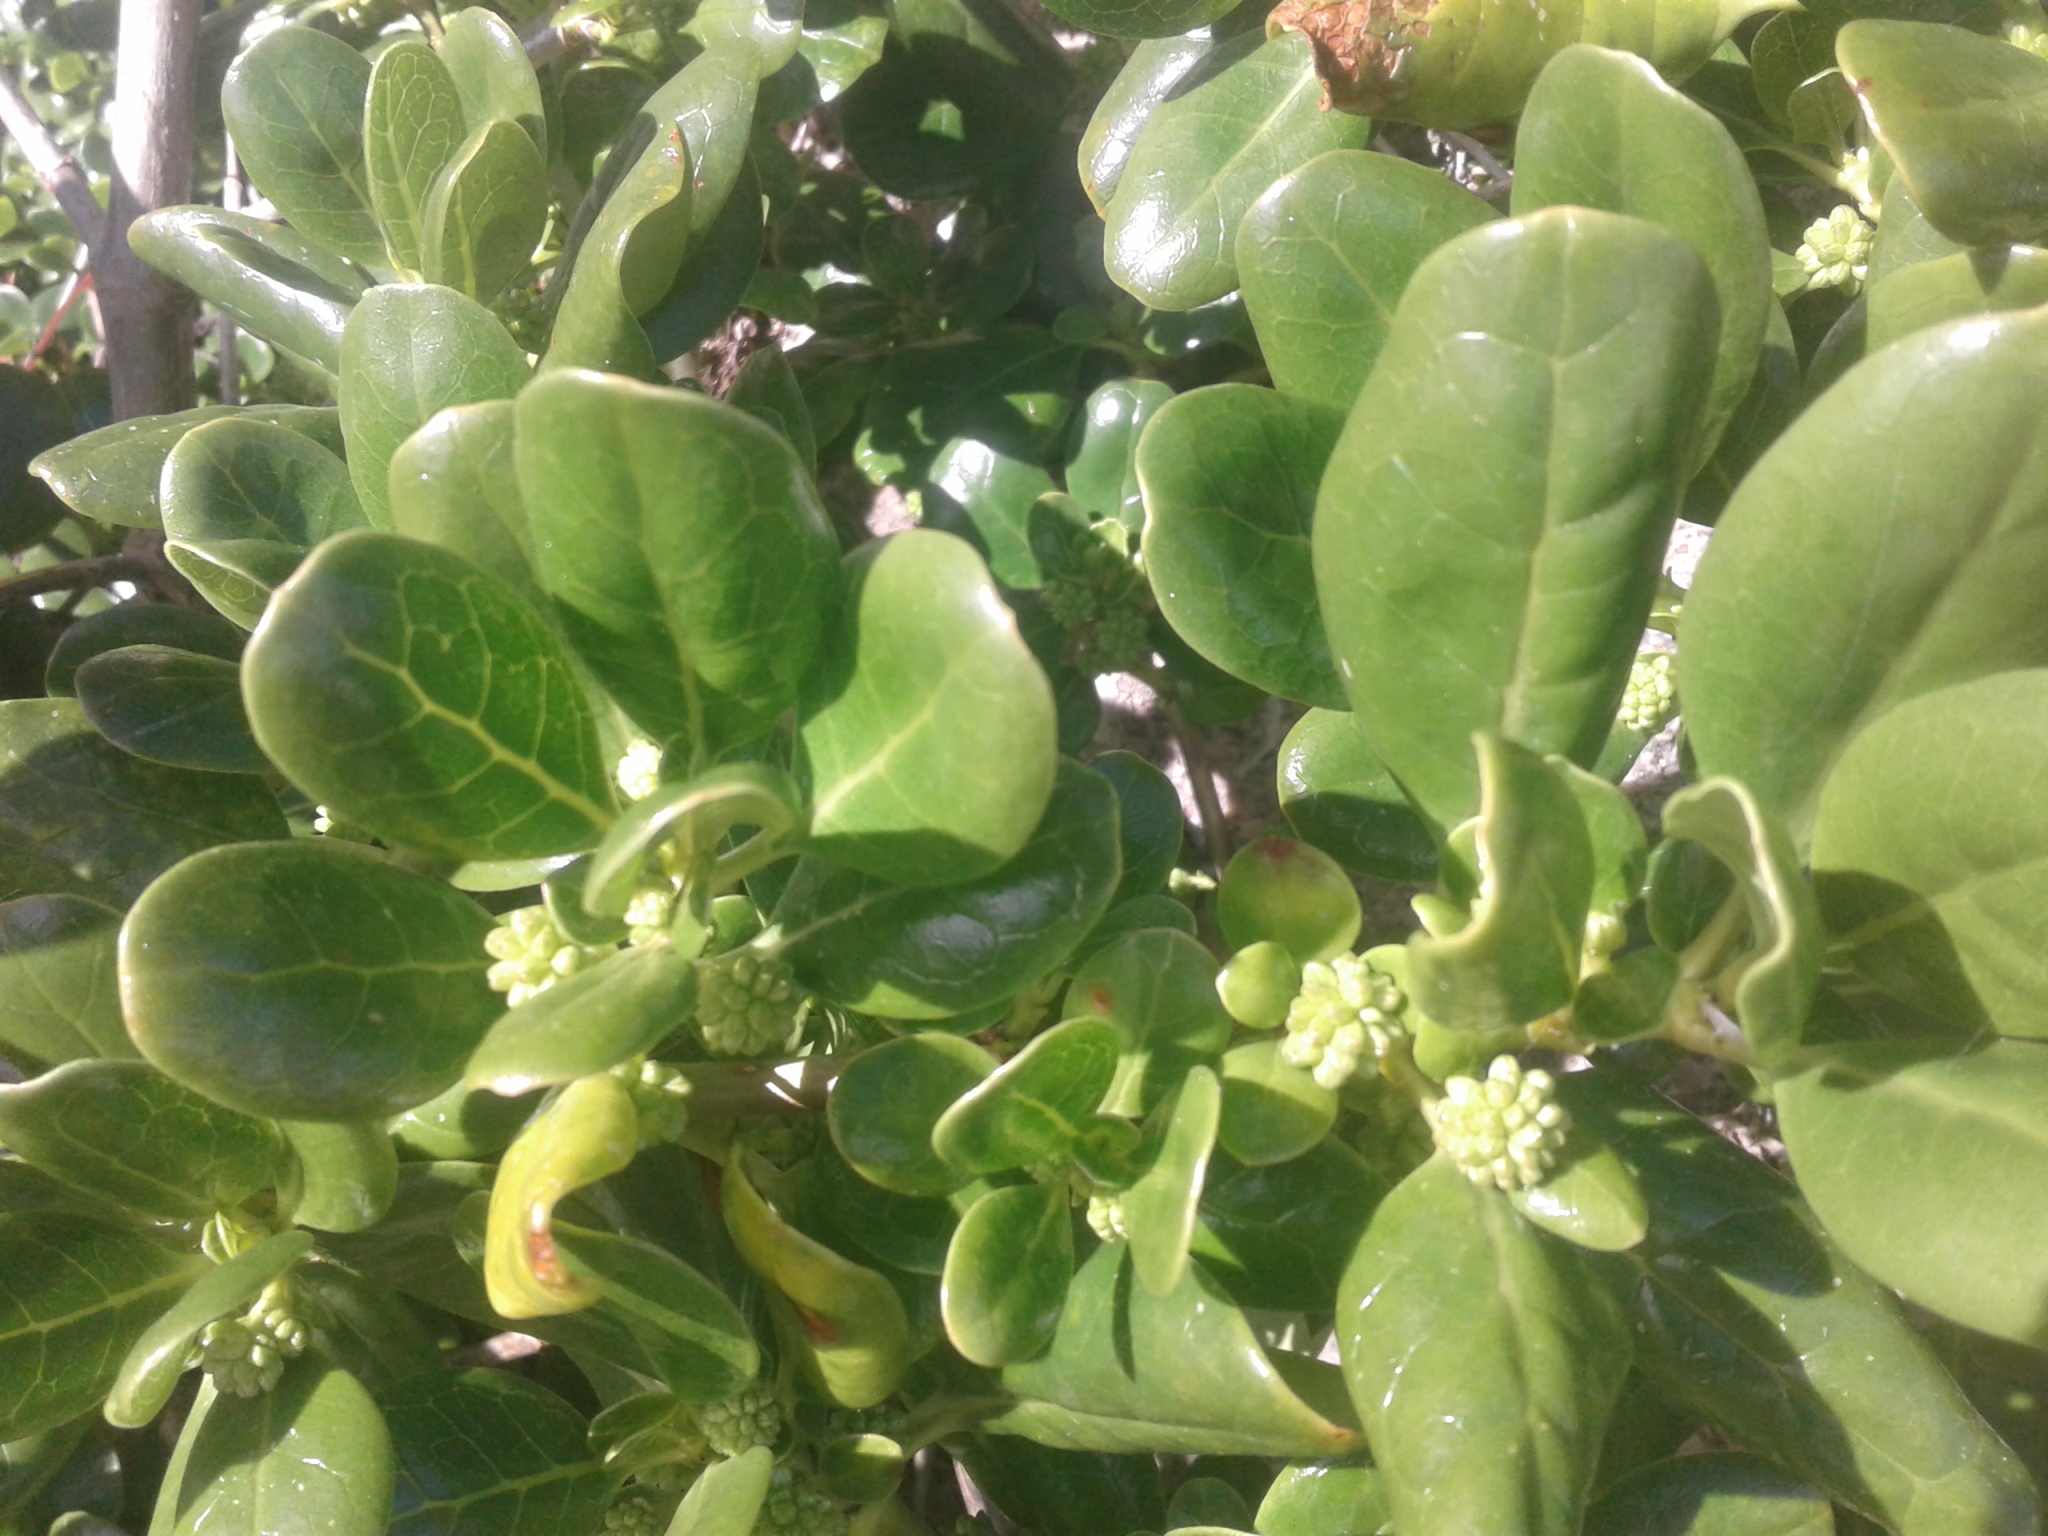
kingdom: Plantae
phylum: Tracheophyta
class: Magnoliopsida
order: Gentianales
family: Rubiaceae
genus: Coprosma
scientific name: Coprosma repens
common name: Tree bedstraw
